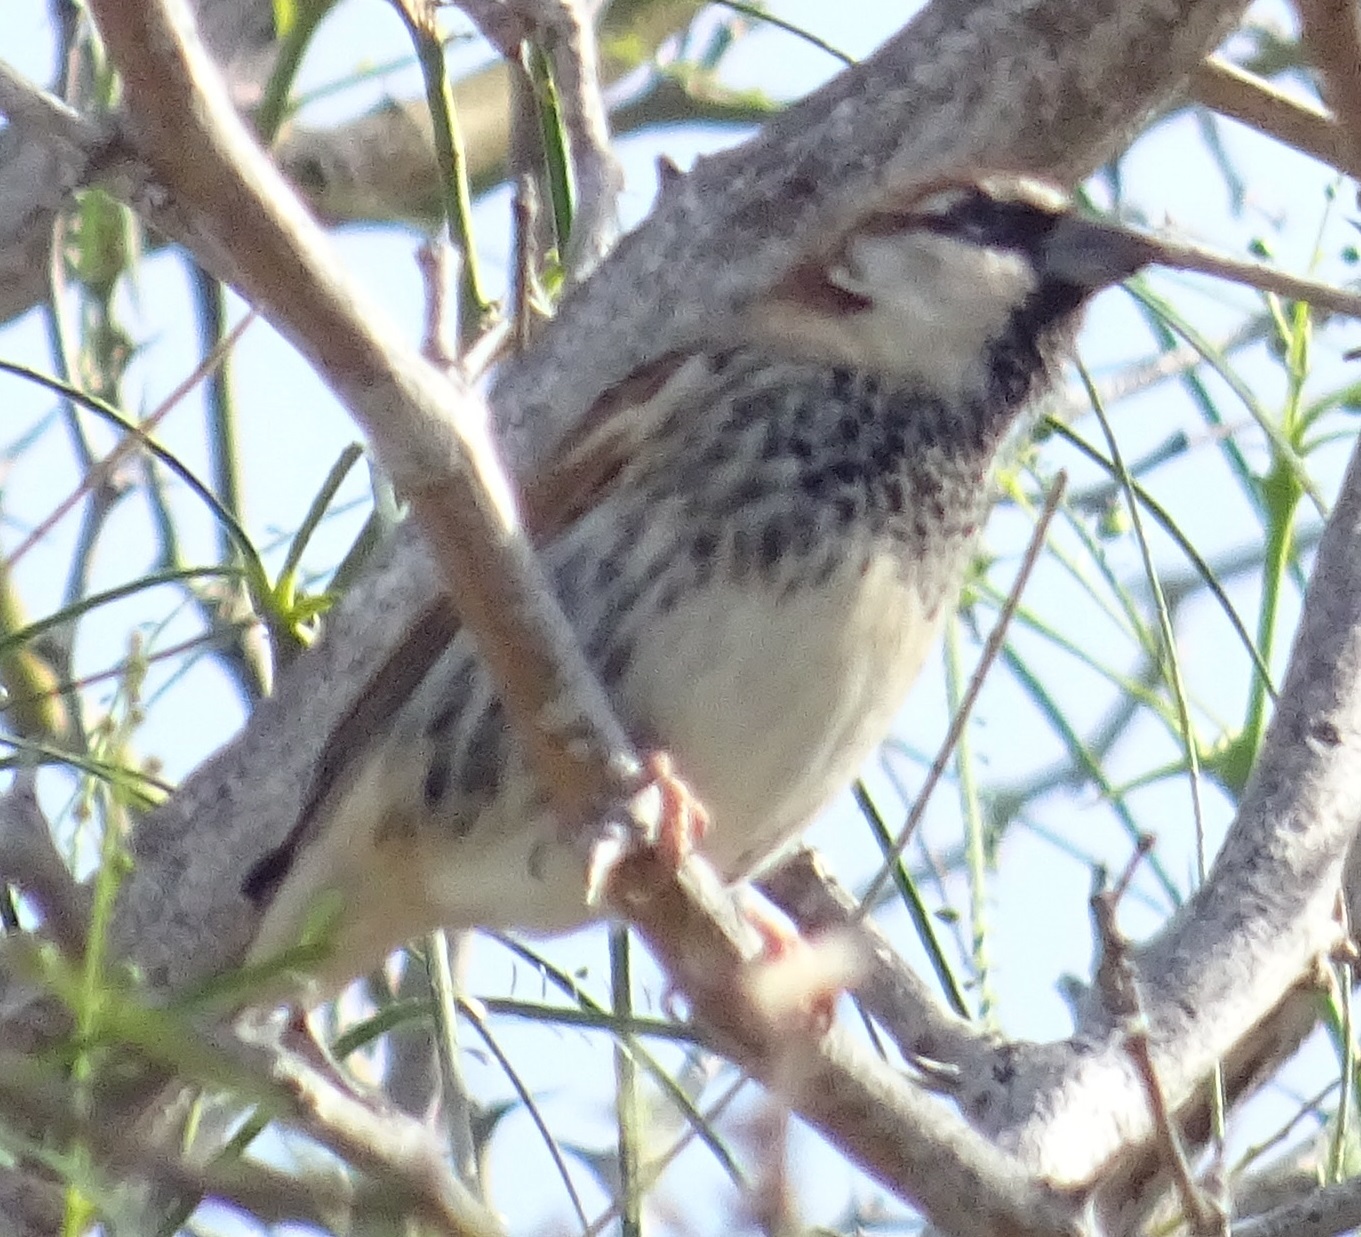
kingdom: Animalia
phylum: Chordata
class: Aves
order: Passeriformes
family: Passeridae
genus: Passer
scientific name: Passer hispaniolensis
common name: Spanish sparrow
